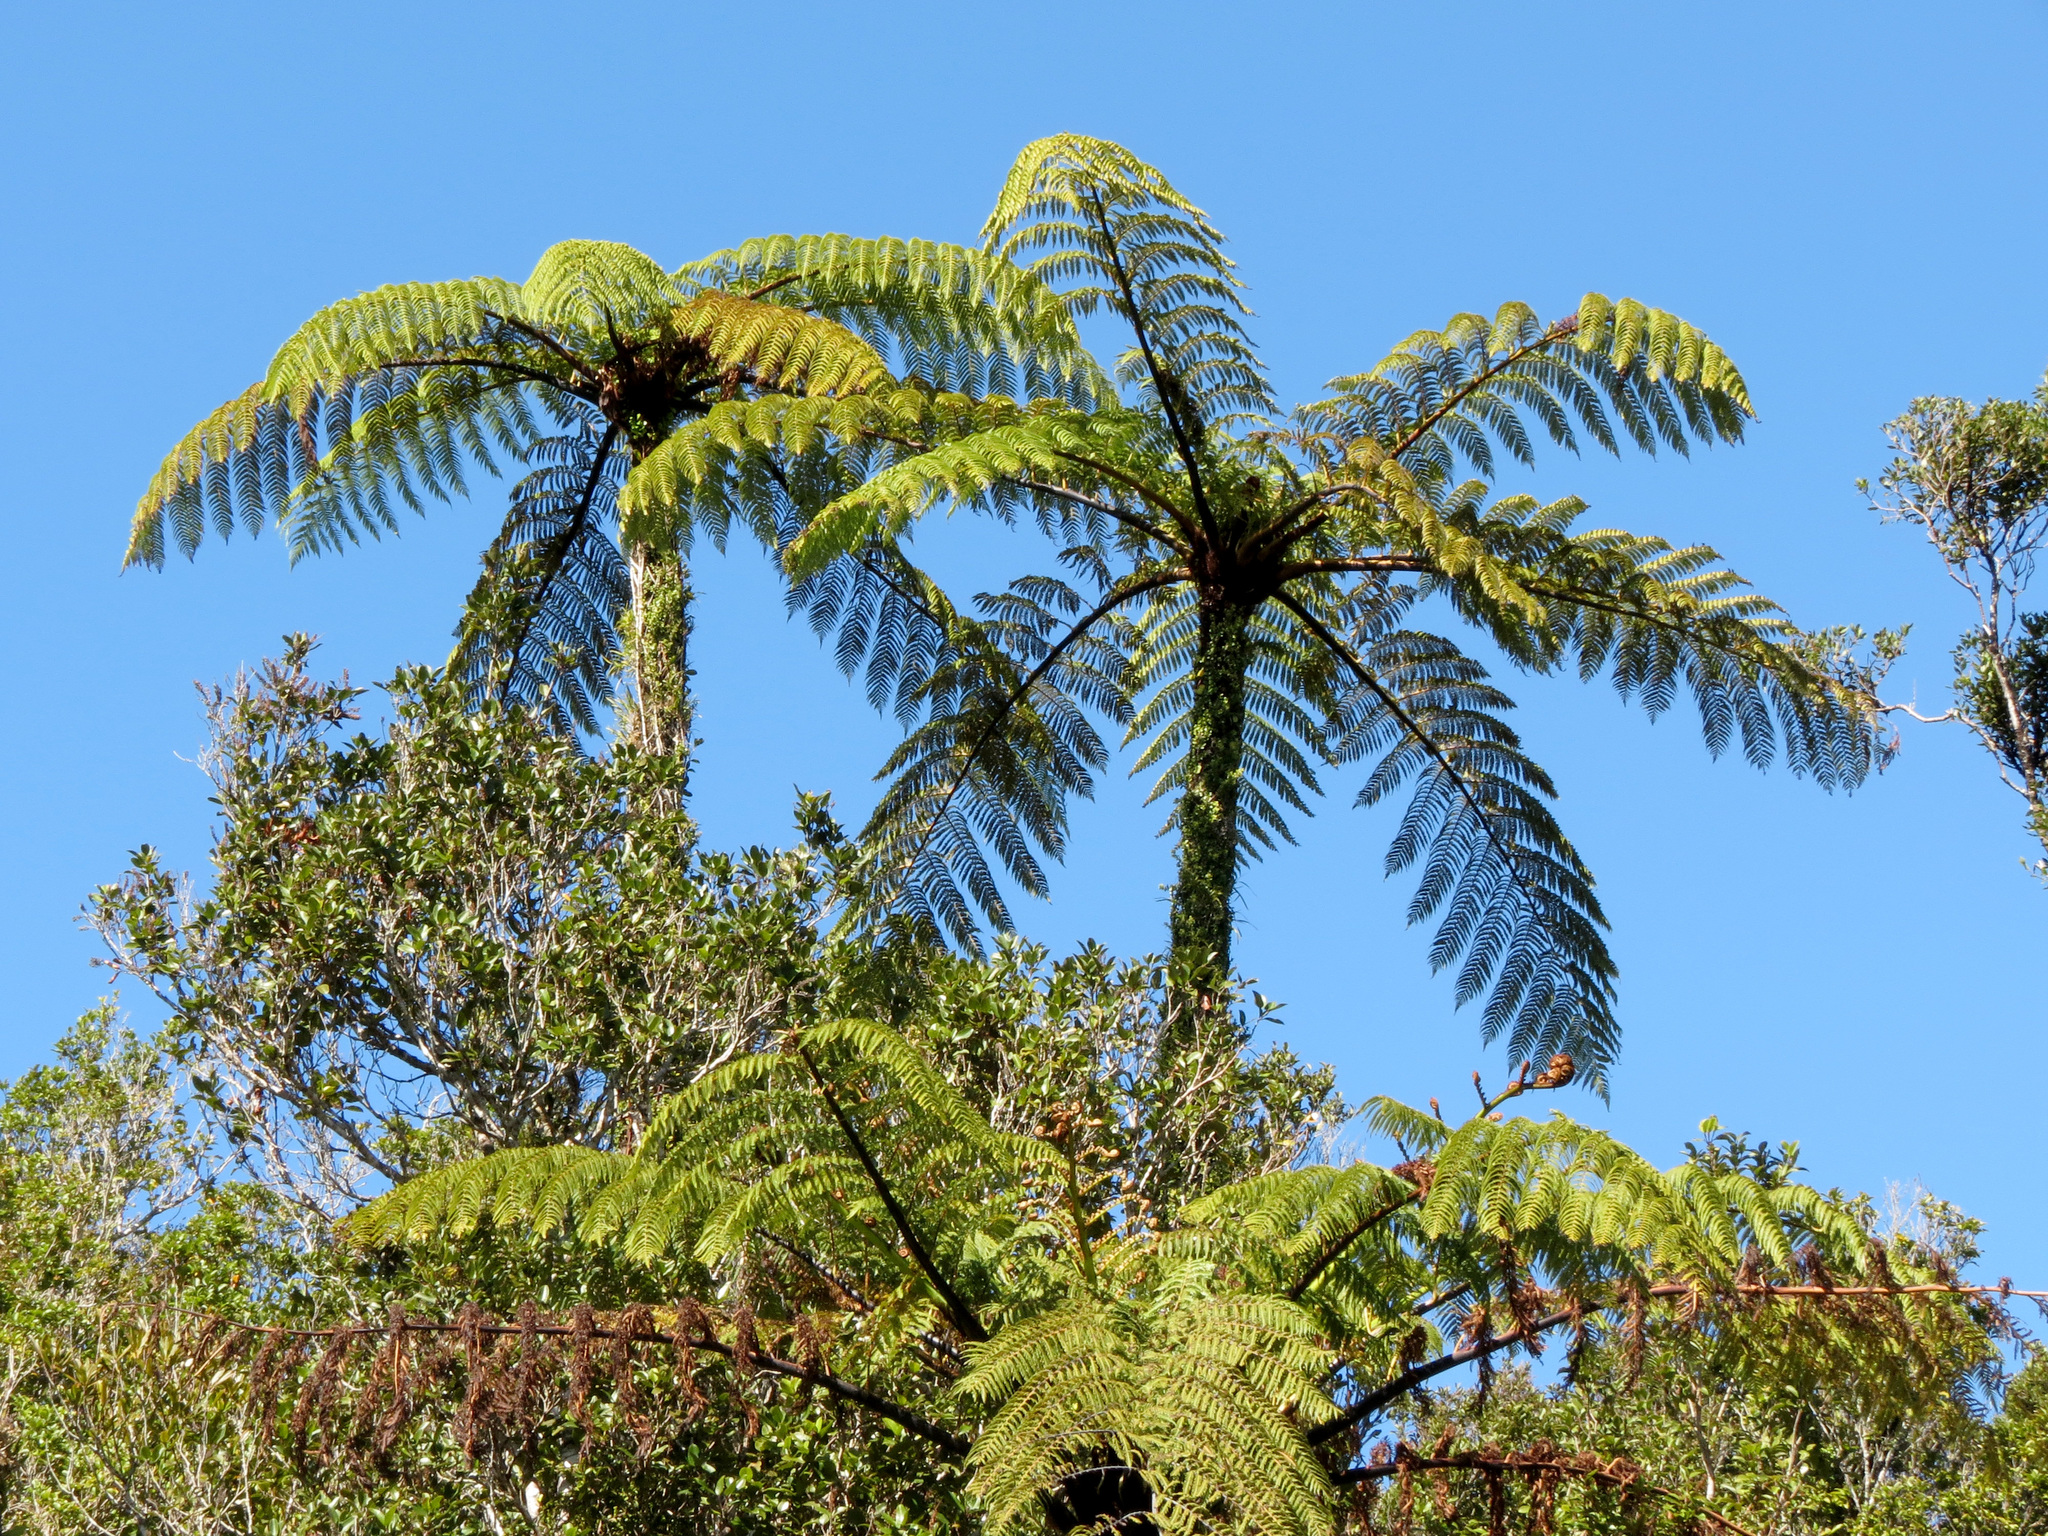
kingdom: Plantae
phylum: Tracheophyta
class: Polypodiopsida
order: Cyatheales
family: Cyatheaceae
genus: Sphaeropteris
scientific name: Sphaeropteris medullaris
